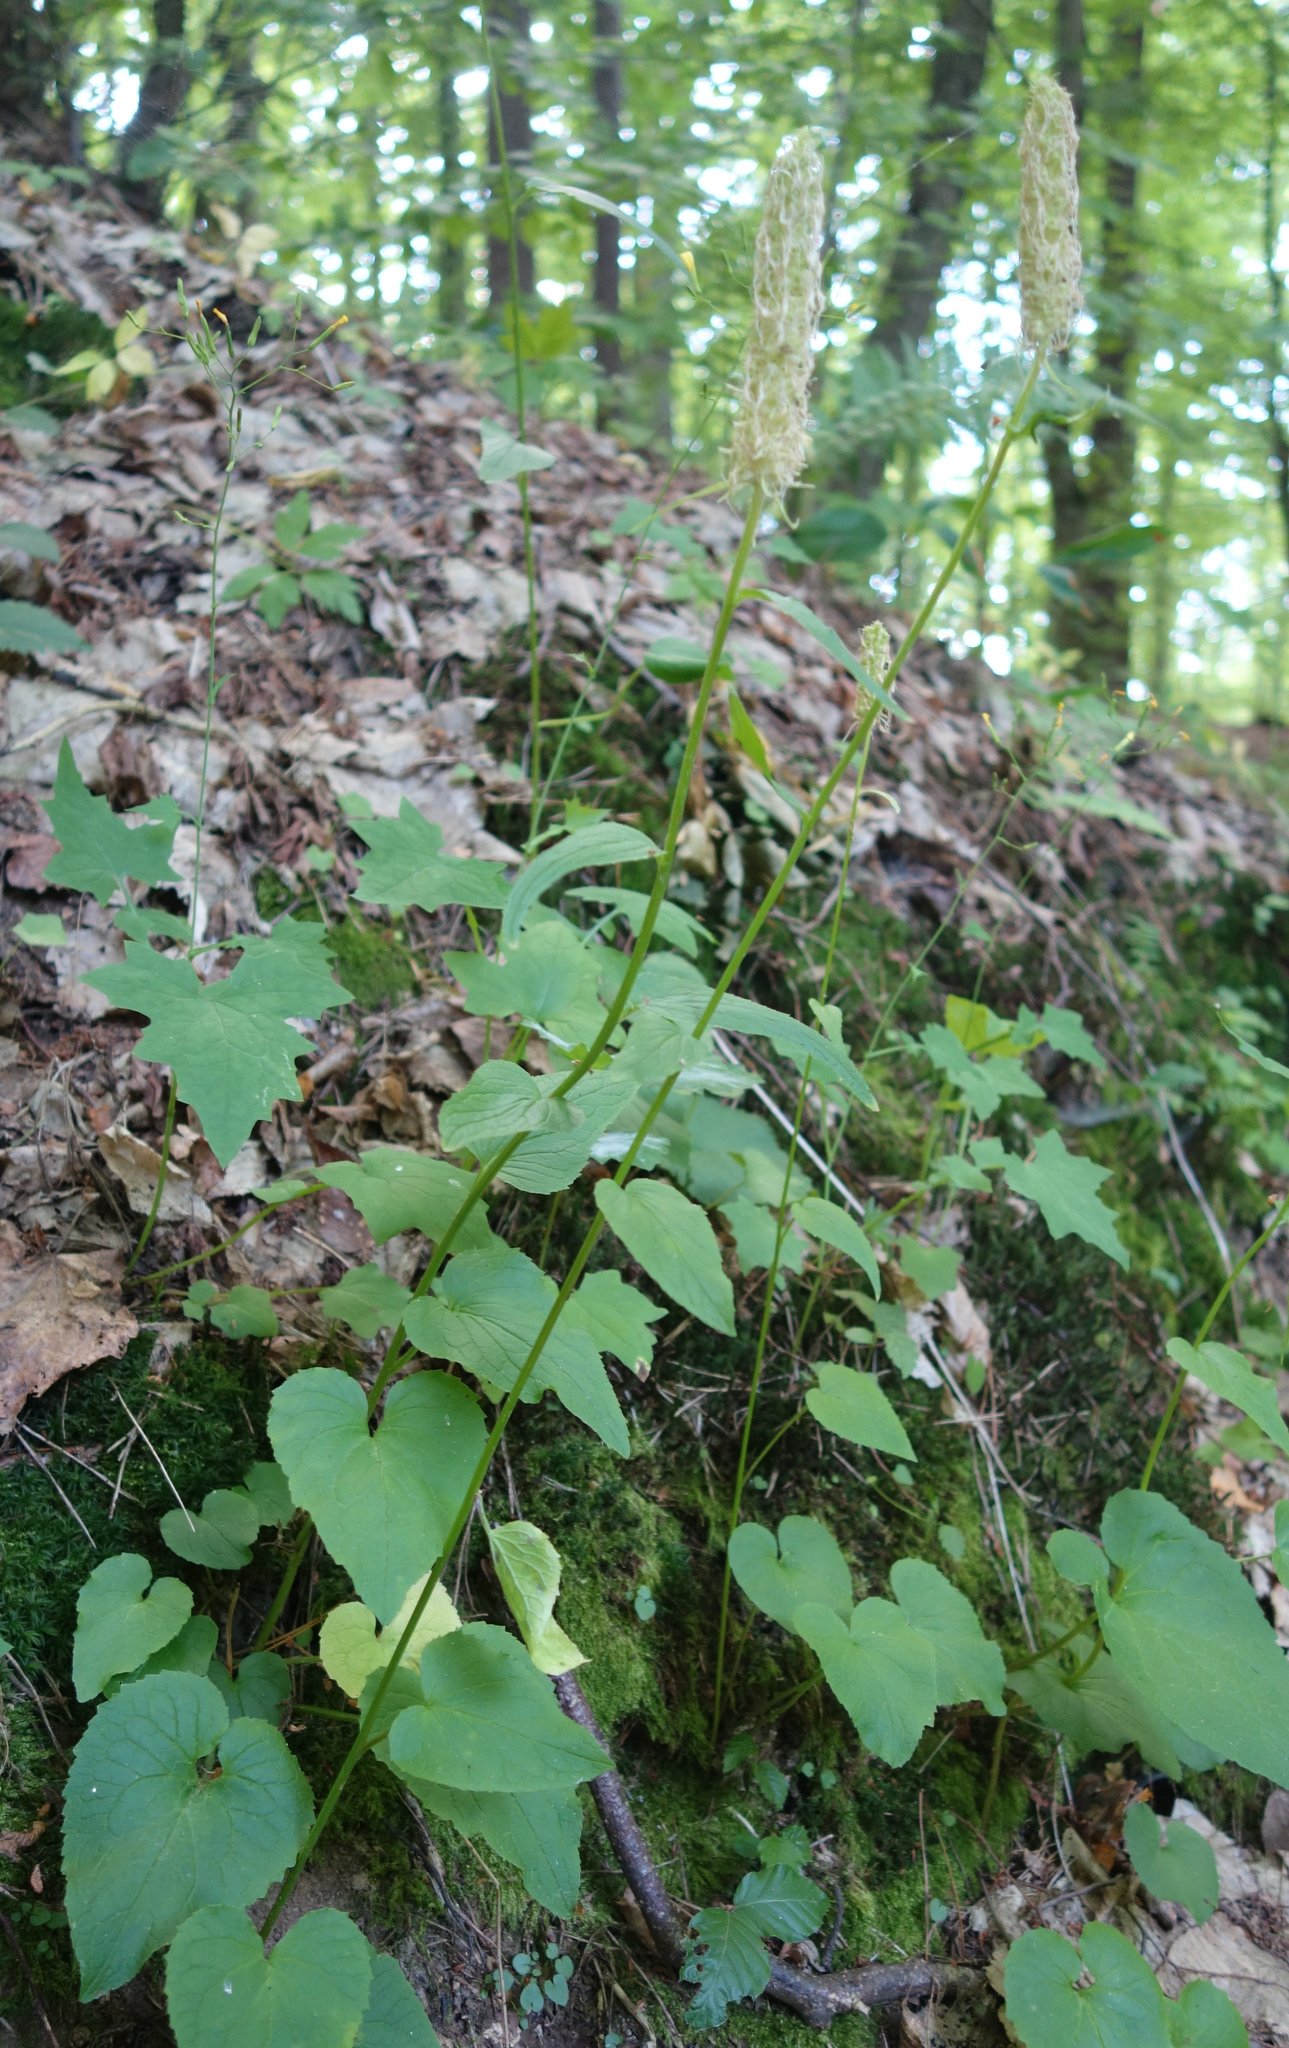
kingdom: Plantae
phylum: Tracheophyta
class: Magnoliopsida
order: Asterales
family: Campanulaceae
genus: Phyteuma
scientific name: Phyteuma spicatum
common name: Spiked rampion
